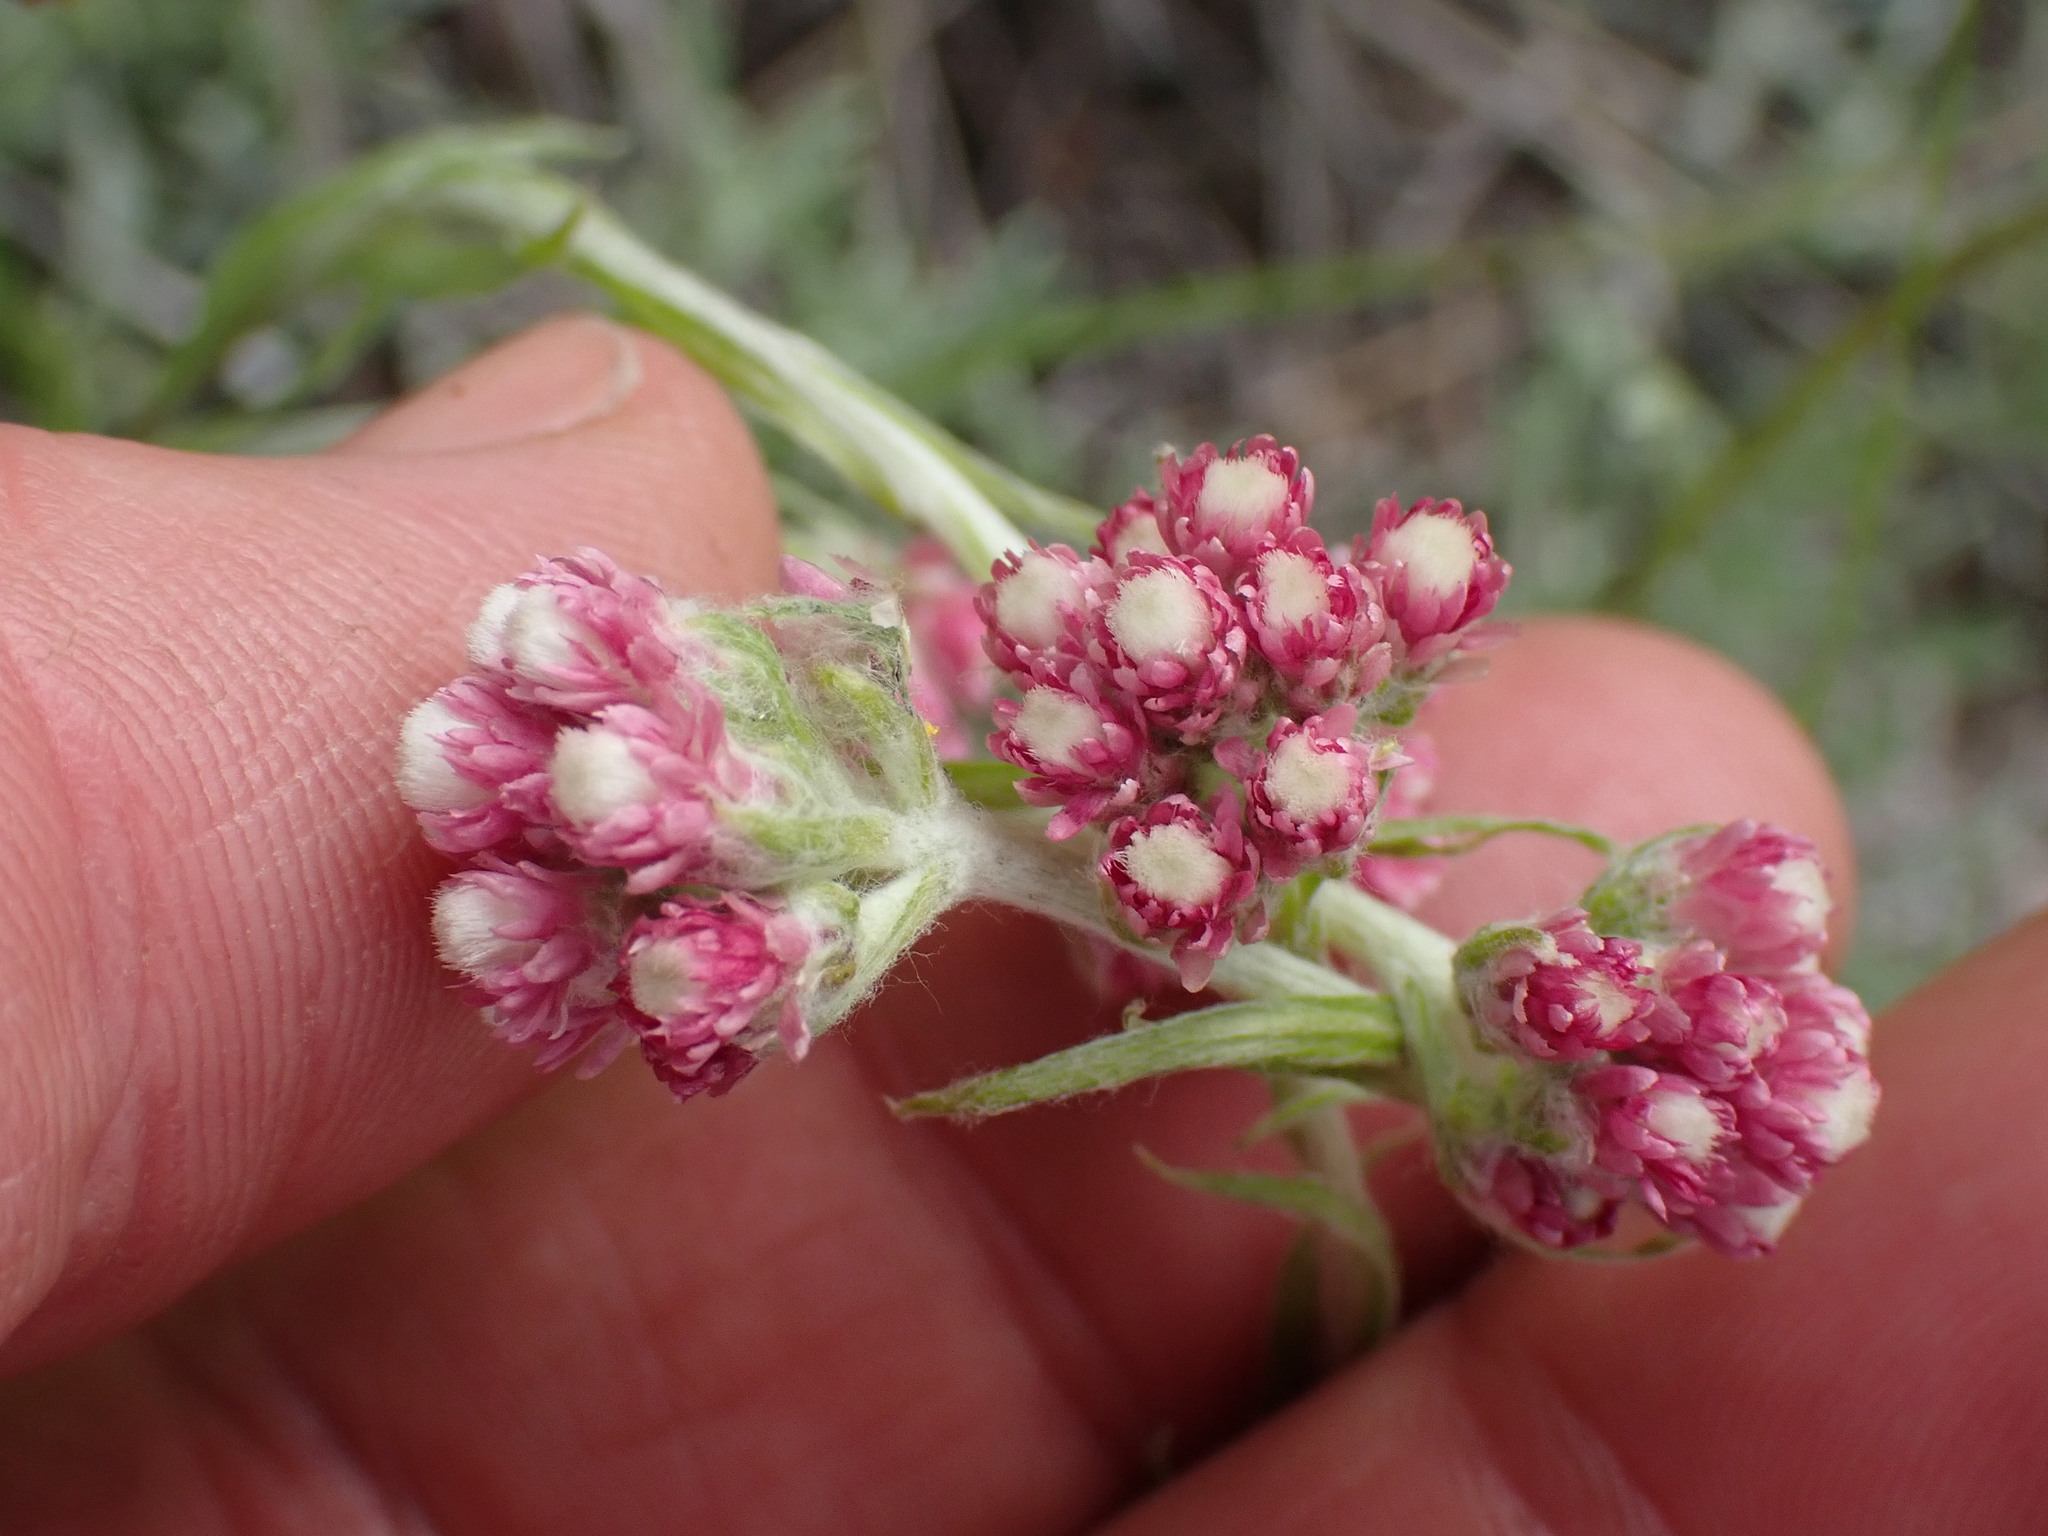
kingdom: Plantae
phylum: Tracheophyta
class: Magnoliopsida
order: Asterales
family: Asteraceae
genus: Antennaria
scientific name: Antennaria rosea
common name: Rosy pussytoes
